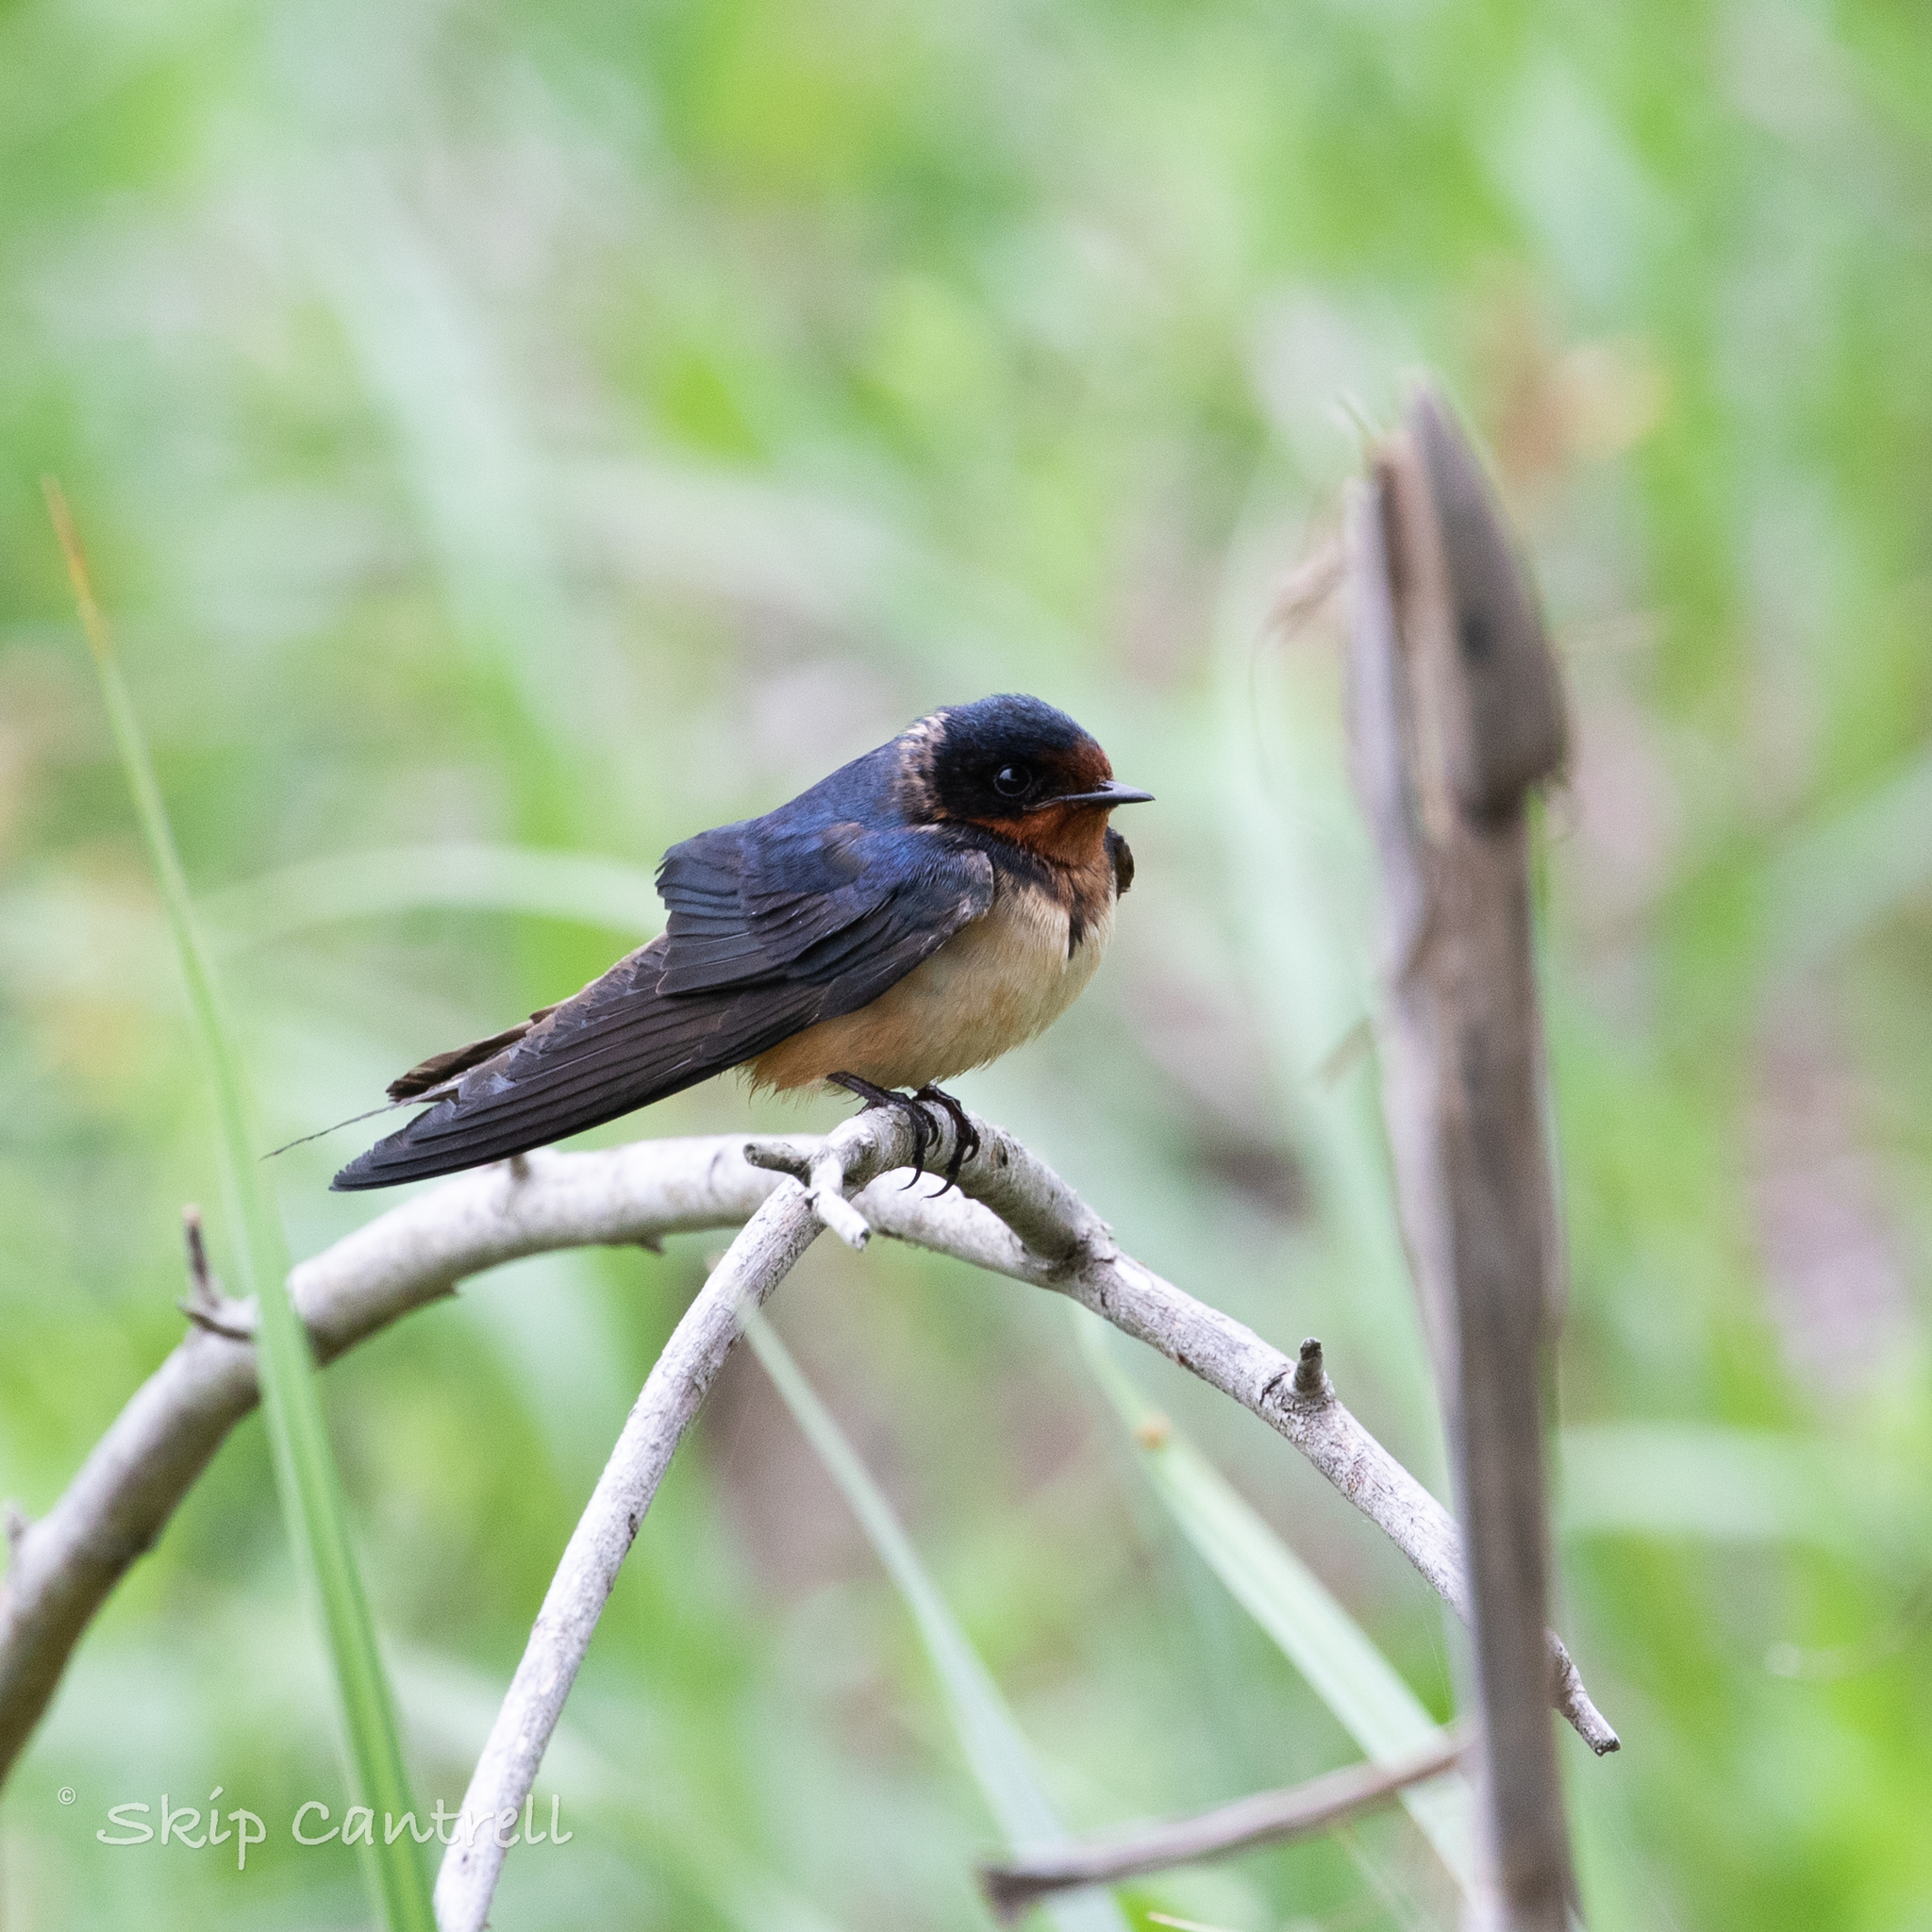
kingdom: Animalia
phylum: Chordata
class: Aves
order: Passeriformes
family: Hirundinidae
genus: Hirundo
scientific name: Hirundo rustica
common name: Barn swallow
